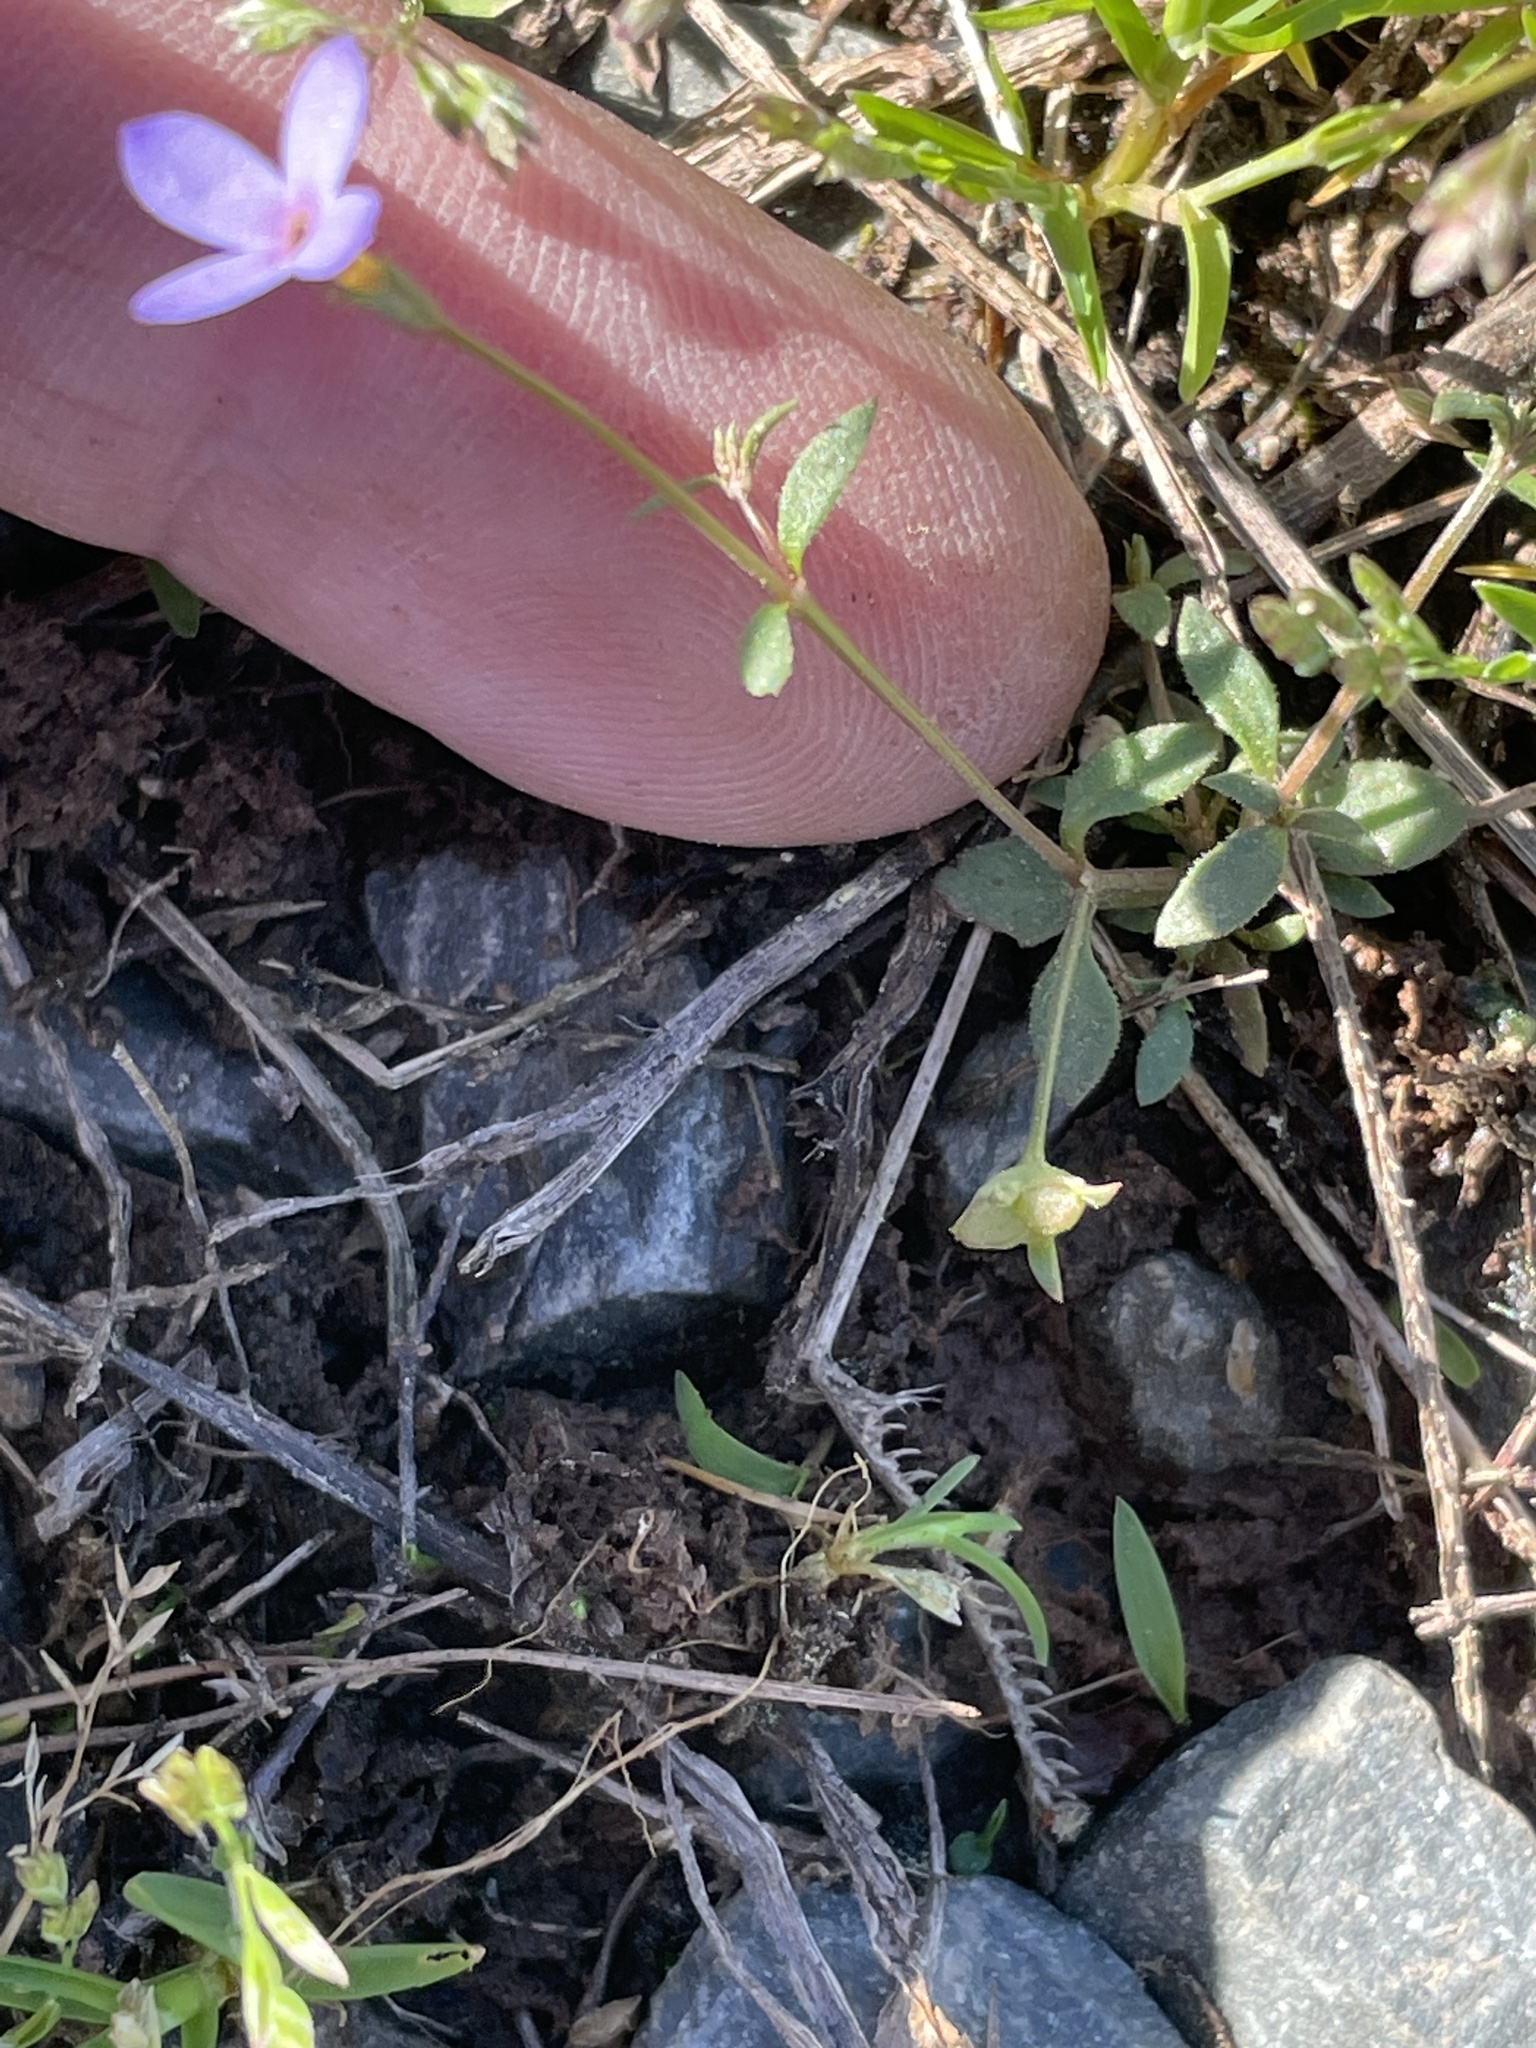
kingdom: Plantae
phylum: Tracheophyta
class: Magnoliopsida
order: Gentianales
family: Rubiaceae
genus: Houstonia
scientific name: Houstonia pusilla
